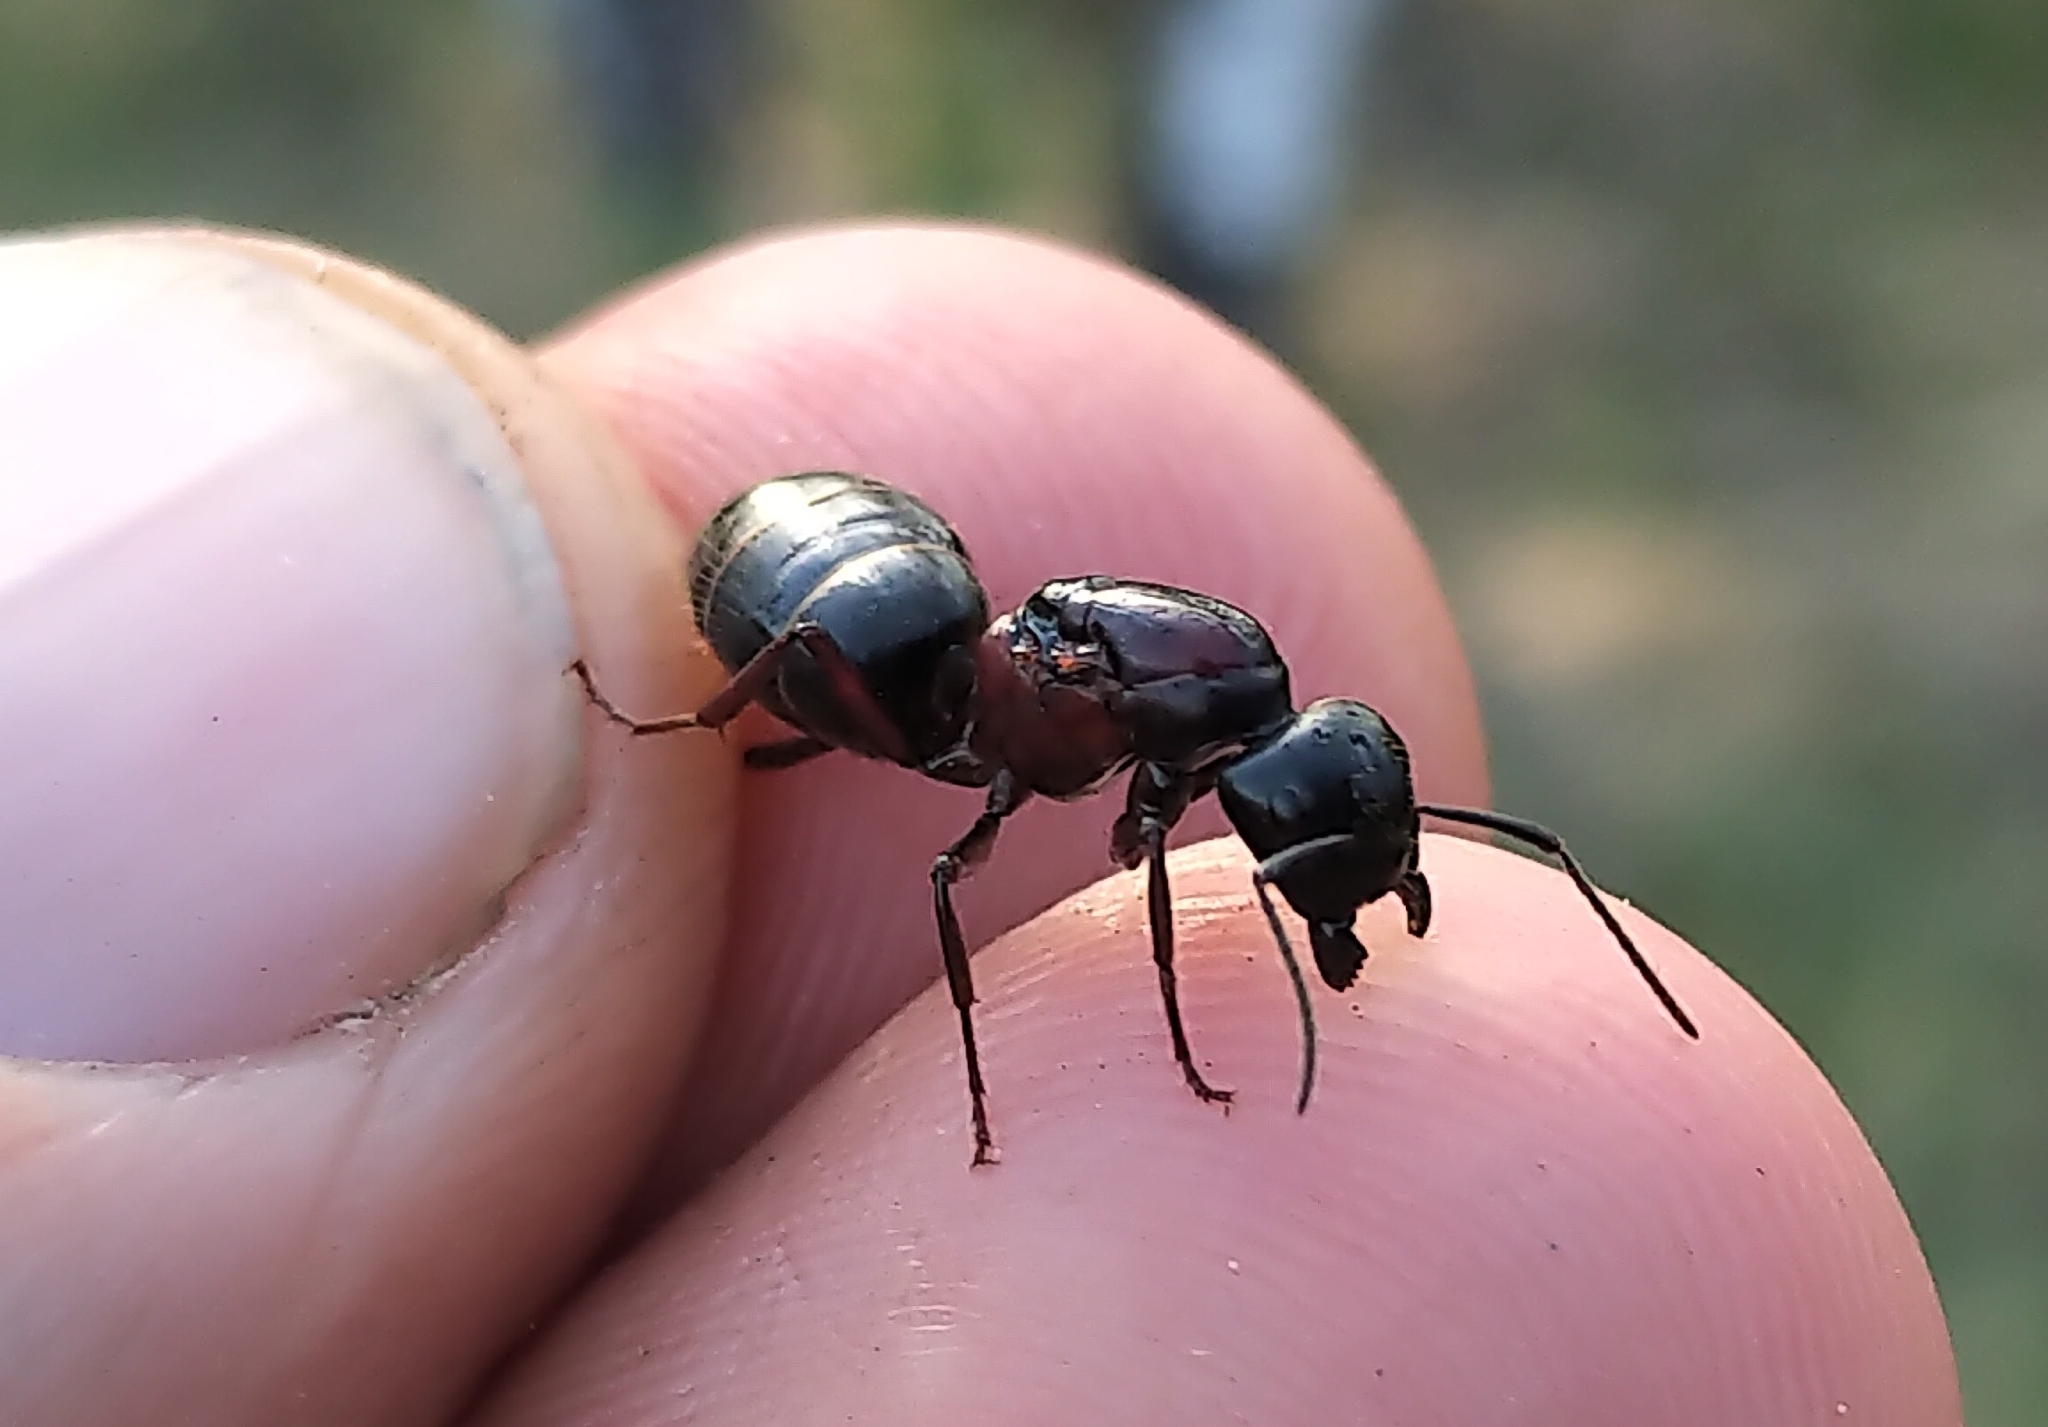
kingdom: Animalia
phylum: Arthropoda
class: Insecta
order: Hymenoptera
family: Formicidae
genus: Camponotus
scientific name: Camponotus novaeboracensis
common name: New york carpenter ant
